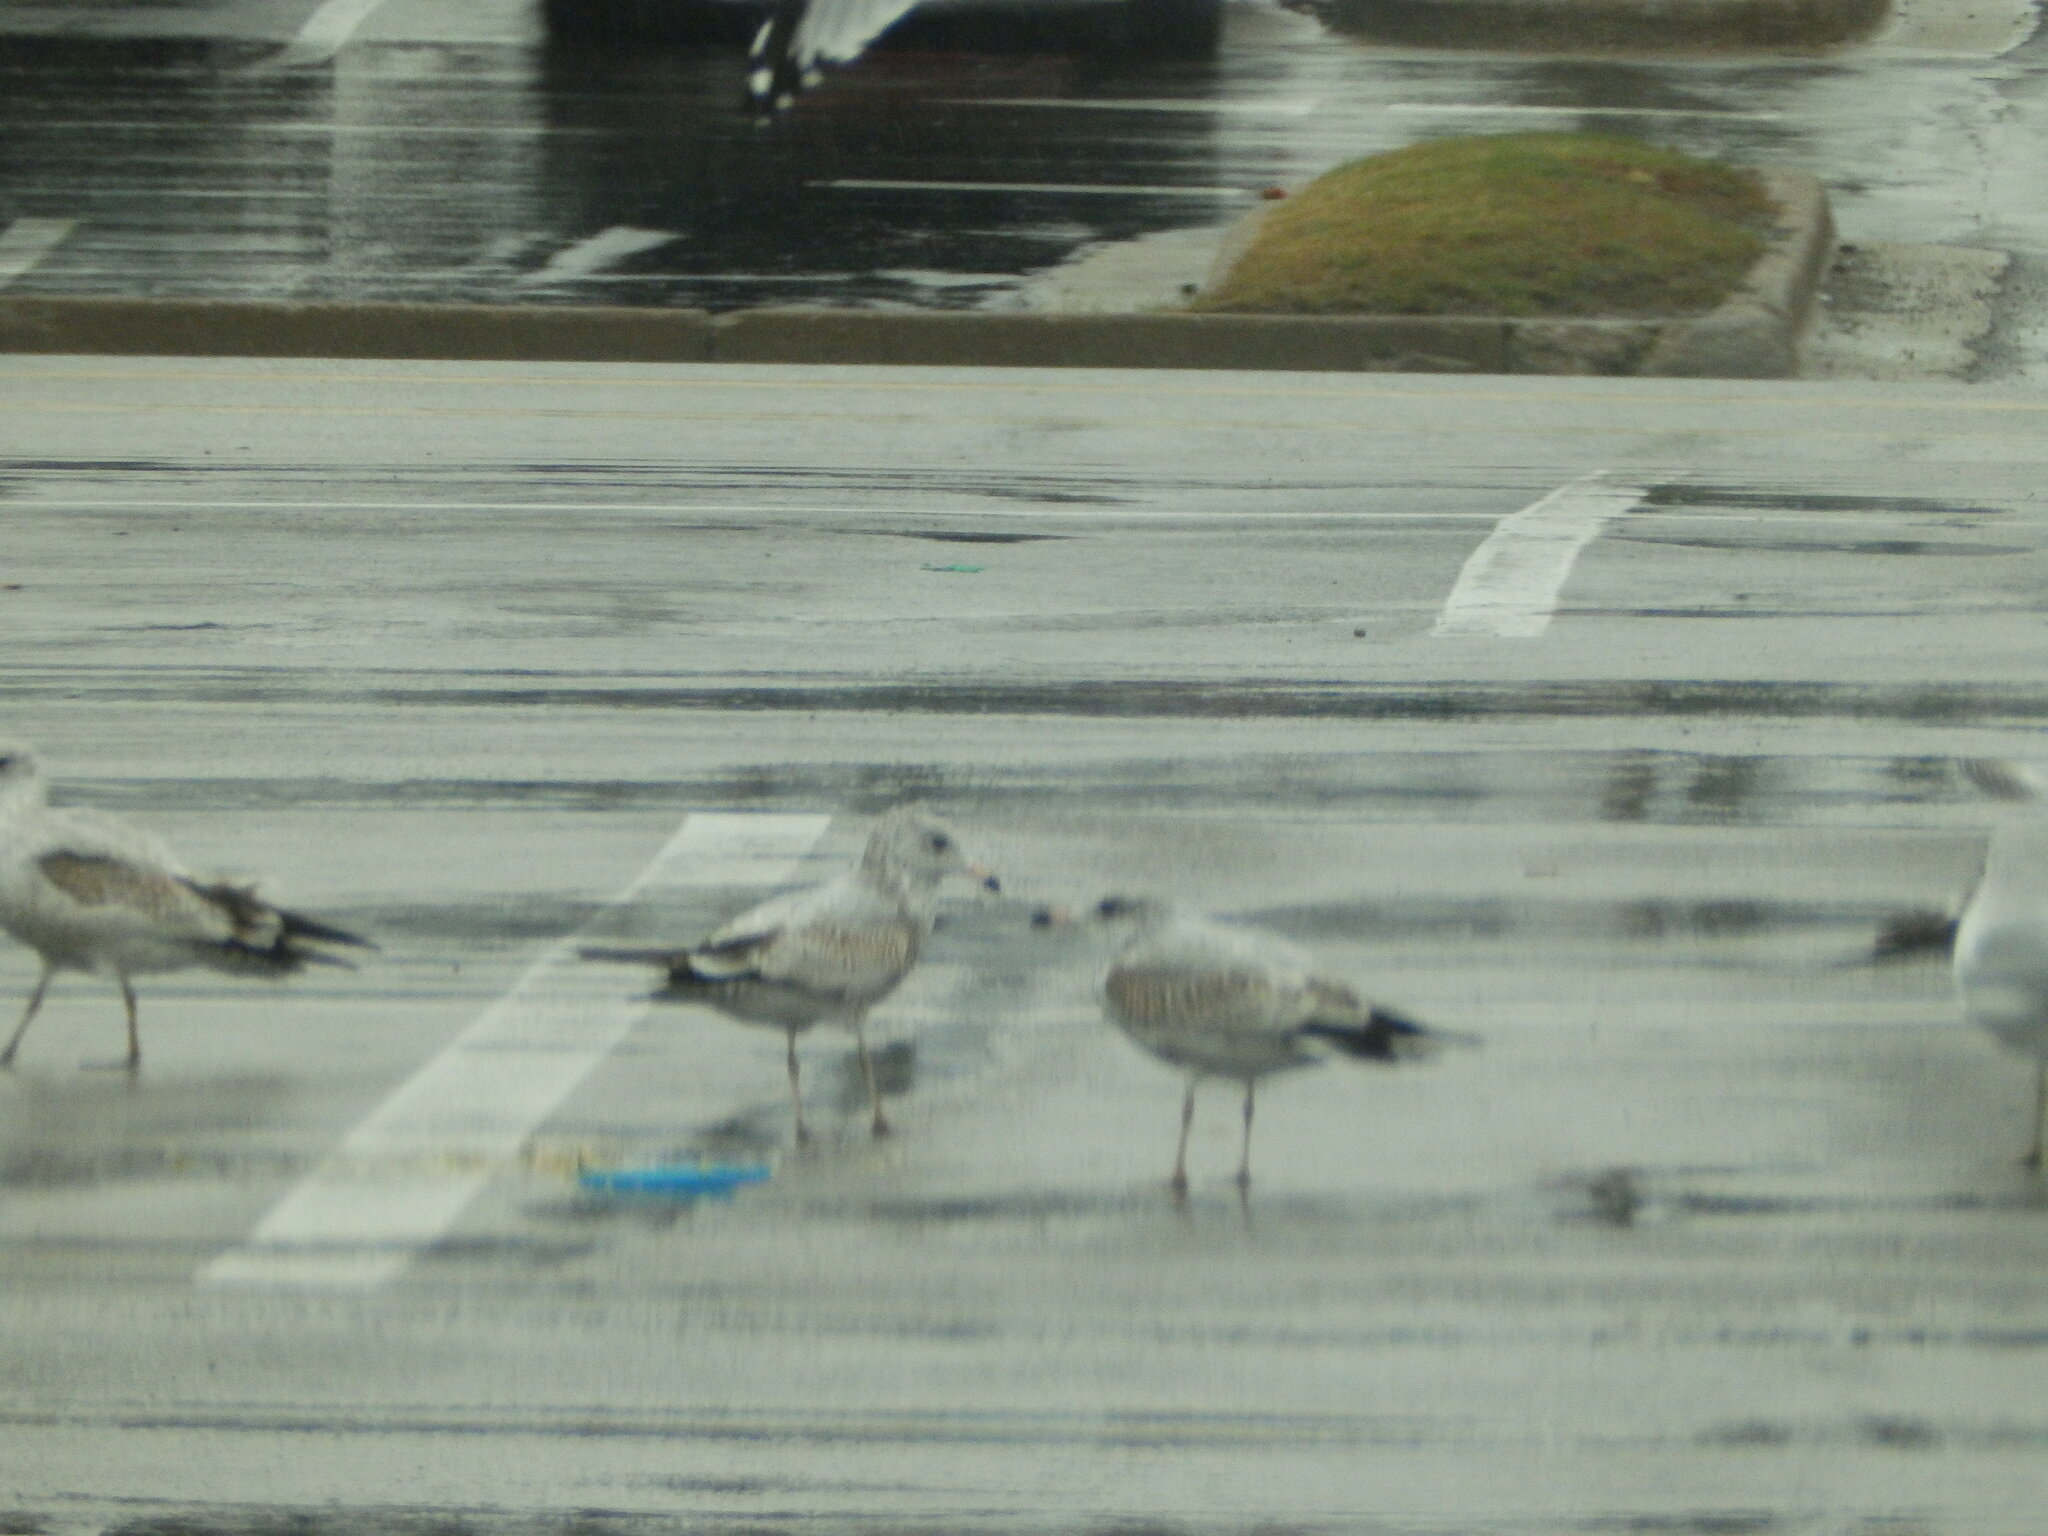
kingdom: Animalia
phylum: Chordata
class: Aves
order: Charadriiformes
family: Laridae
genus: Larus
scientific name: Larus delawarensis
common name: Ring-billed gull
